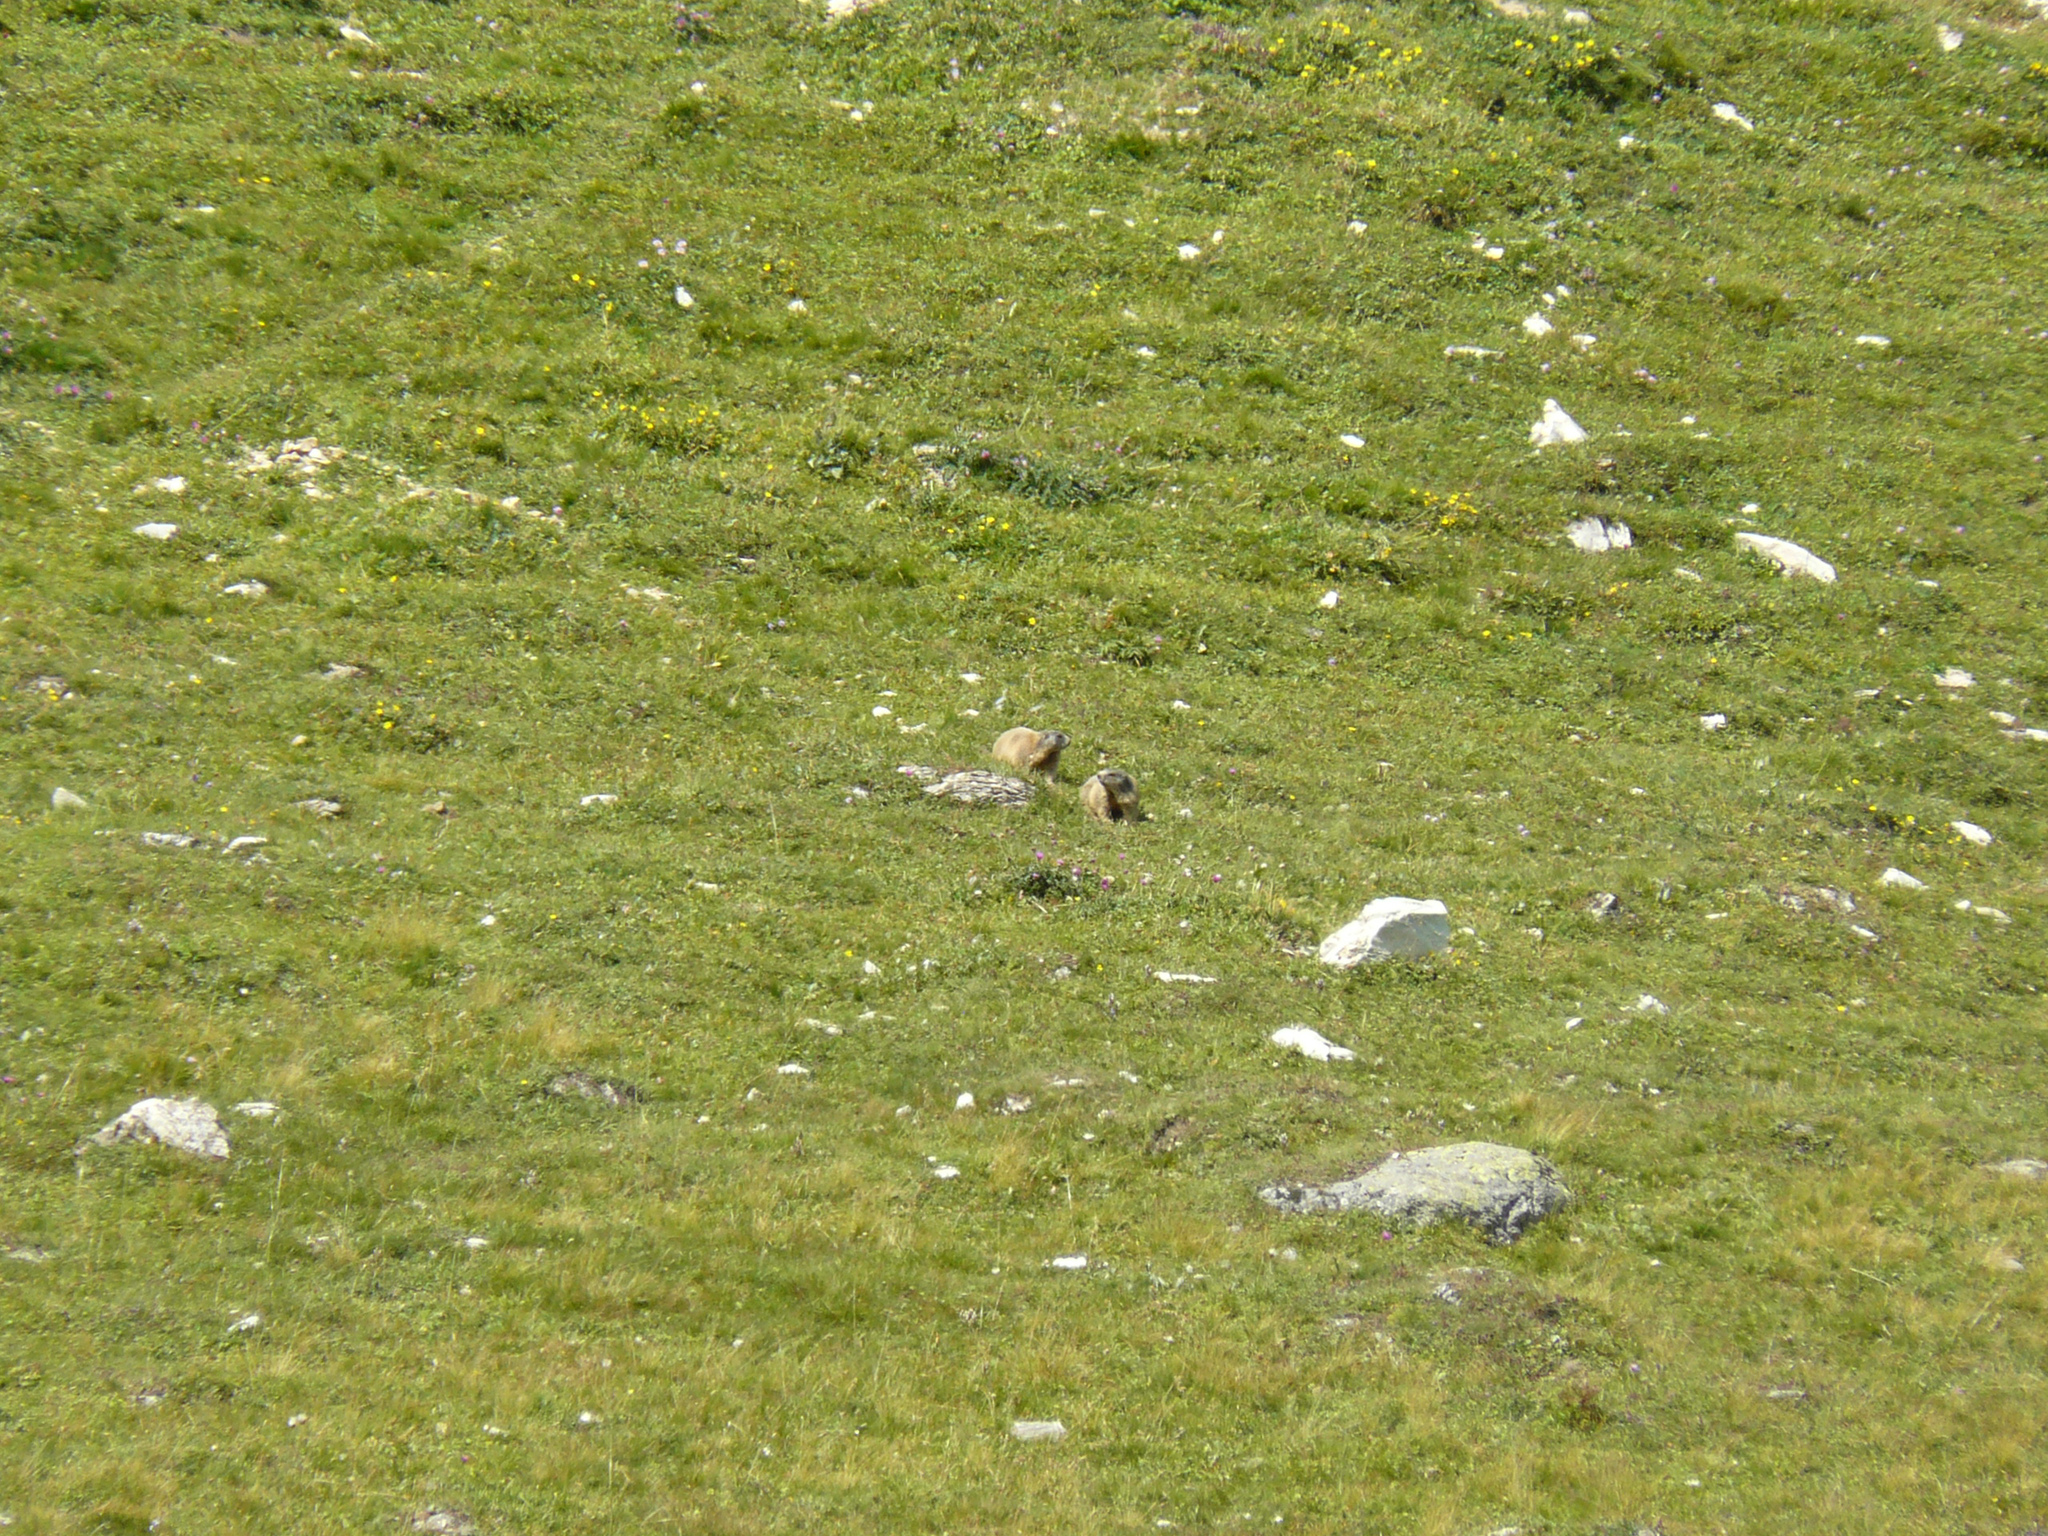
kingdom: Animalia
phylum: Chordata
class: Mammalia
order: Rodentia
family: Sciuridae
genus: Marmota
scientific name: Marmota marmota
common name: Alpine marmot
